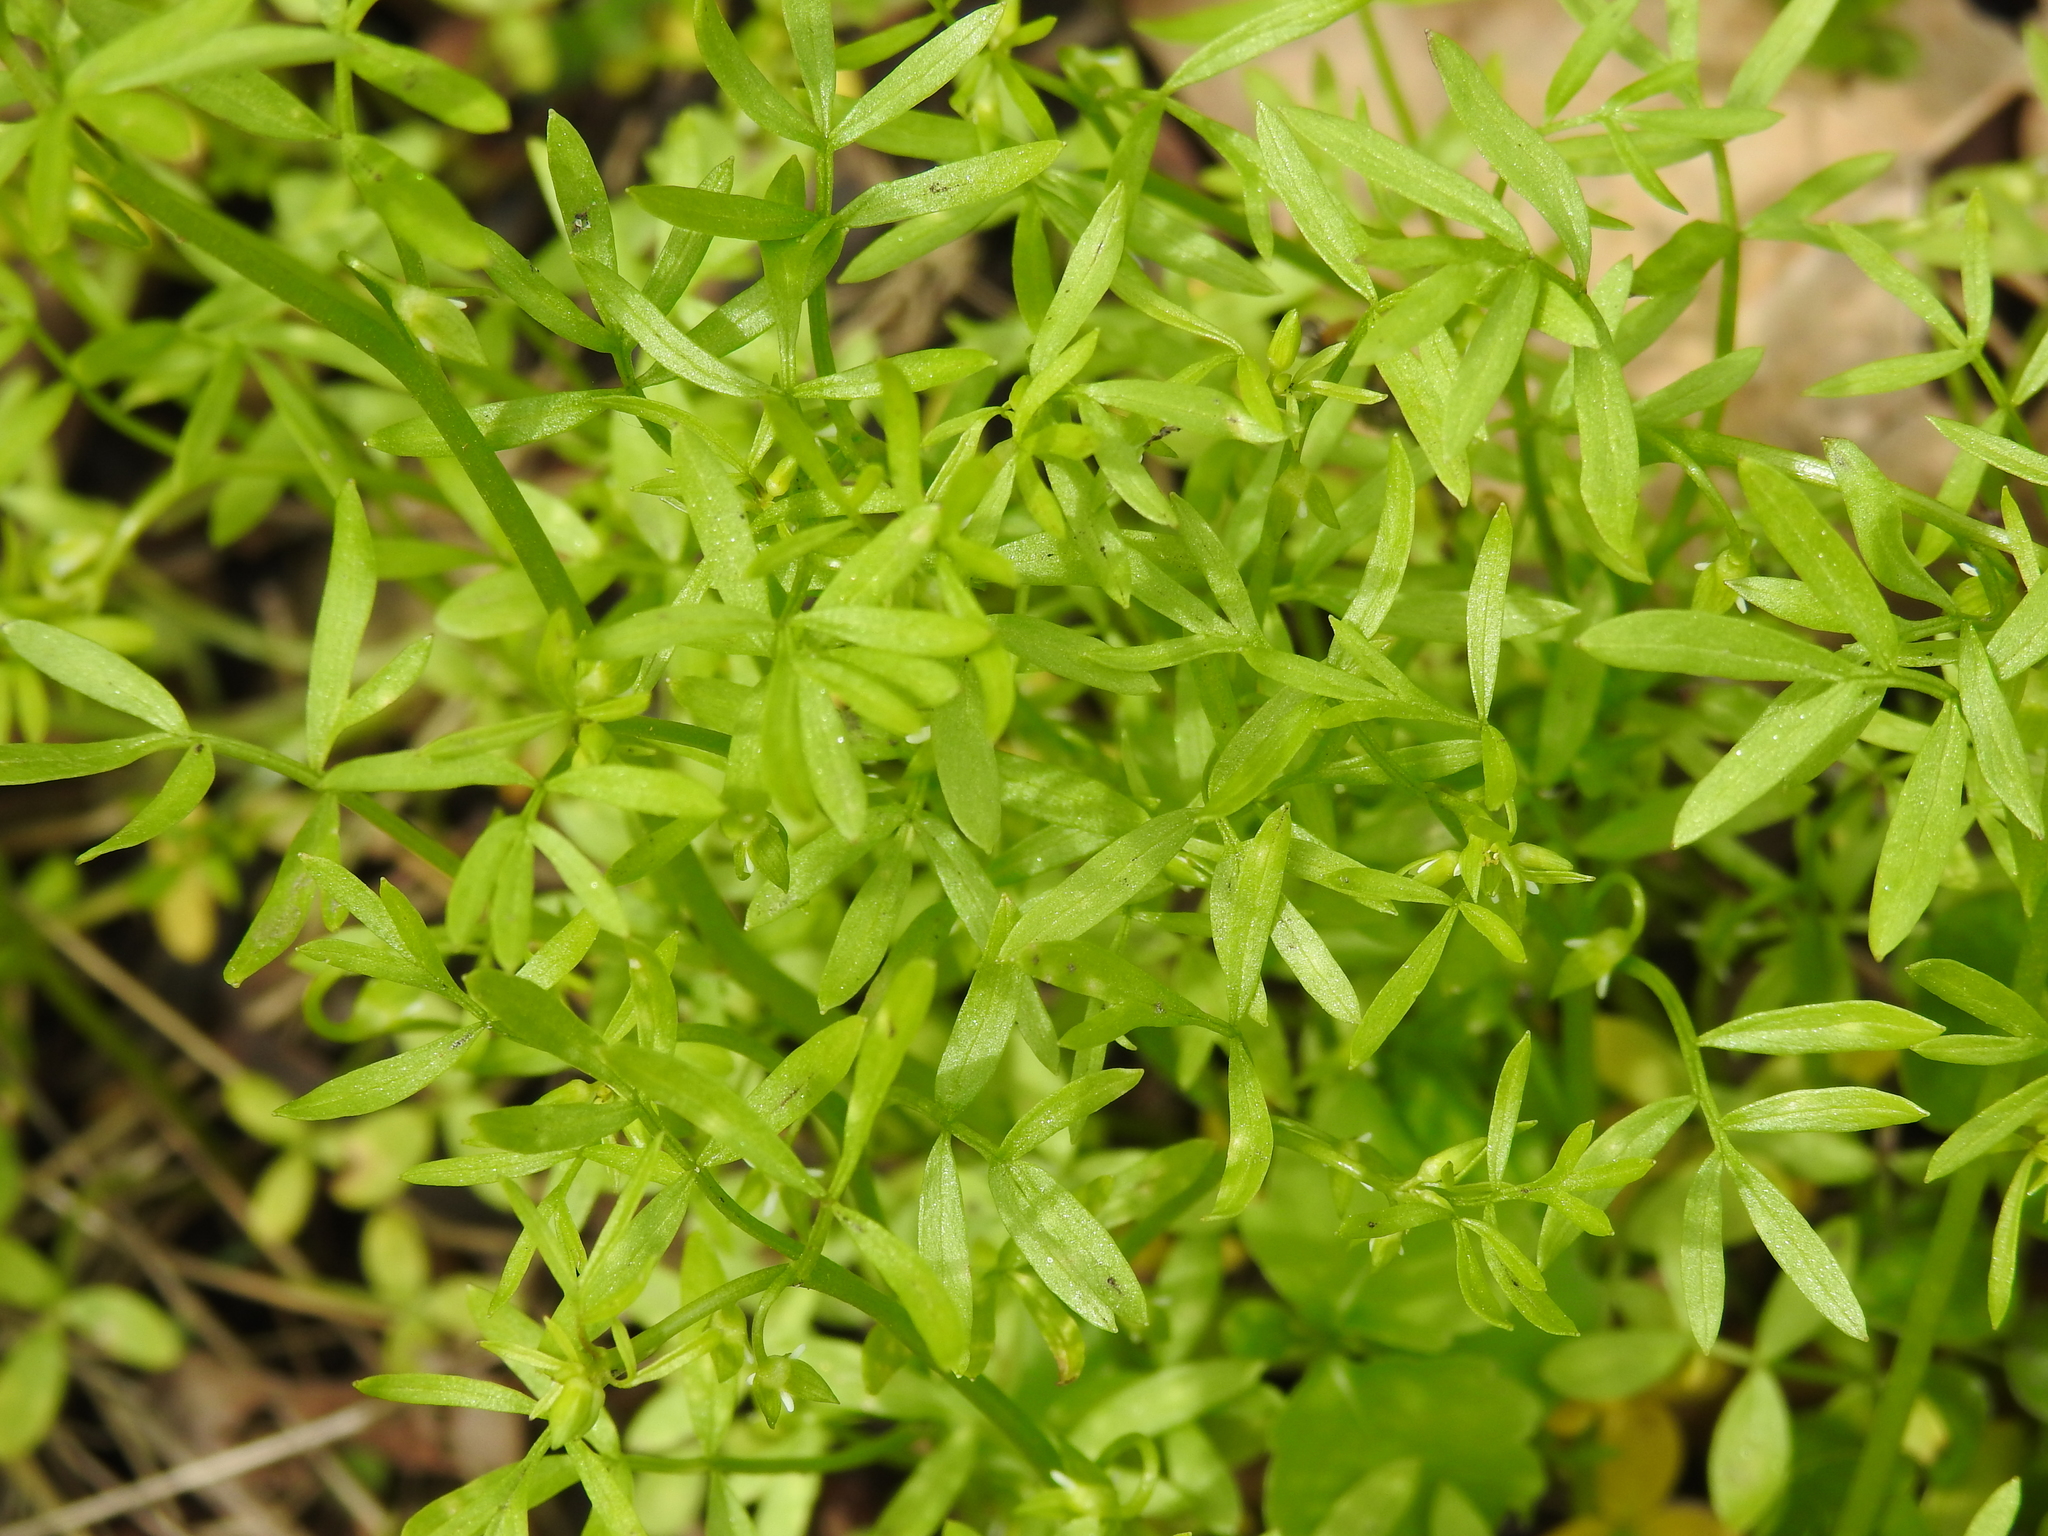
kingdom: Plantae
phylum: Tracheophyta
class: Magnoliopsida
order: Brassicales
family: Limnanthaceae
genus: Floerkea
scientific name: Floerkea proserpinacoides
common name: False mermaid
